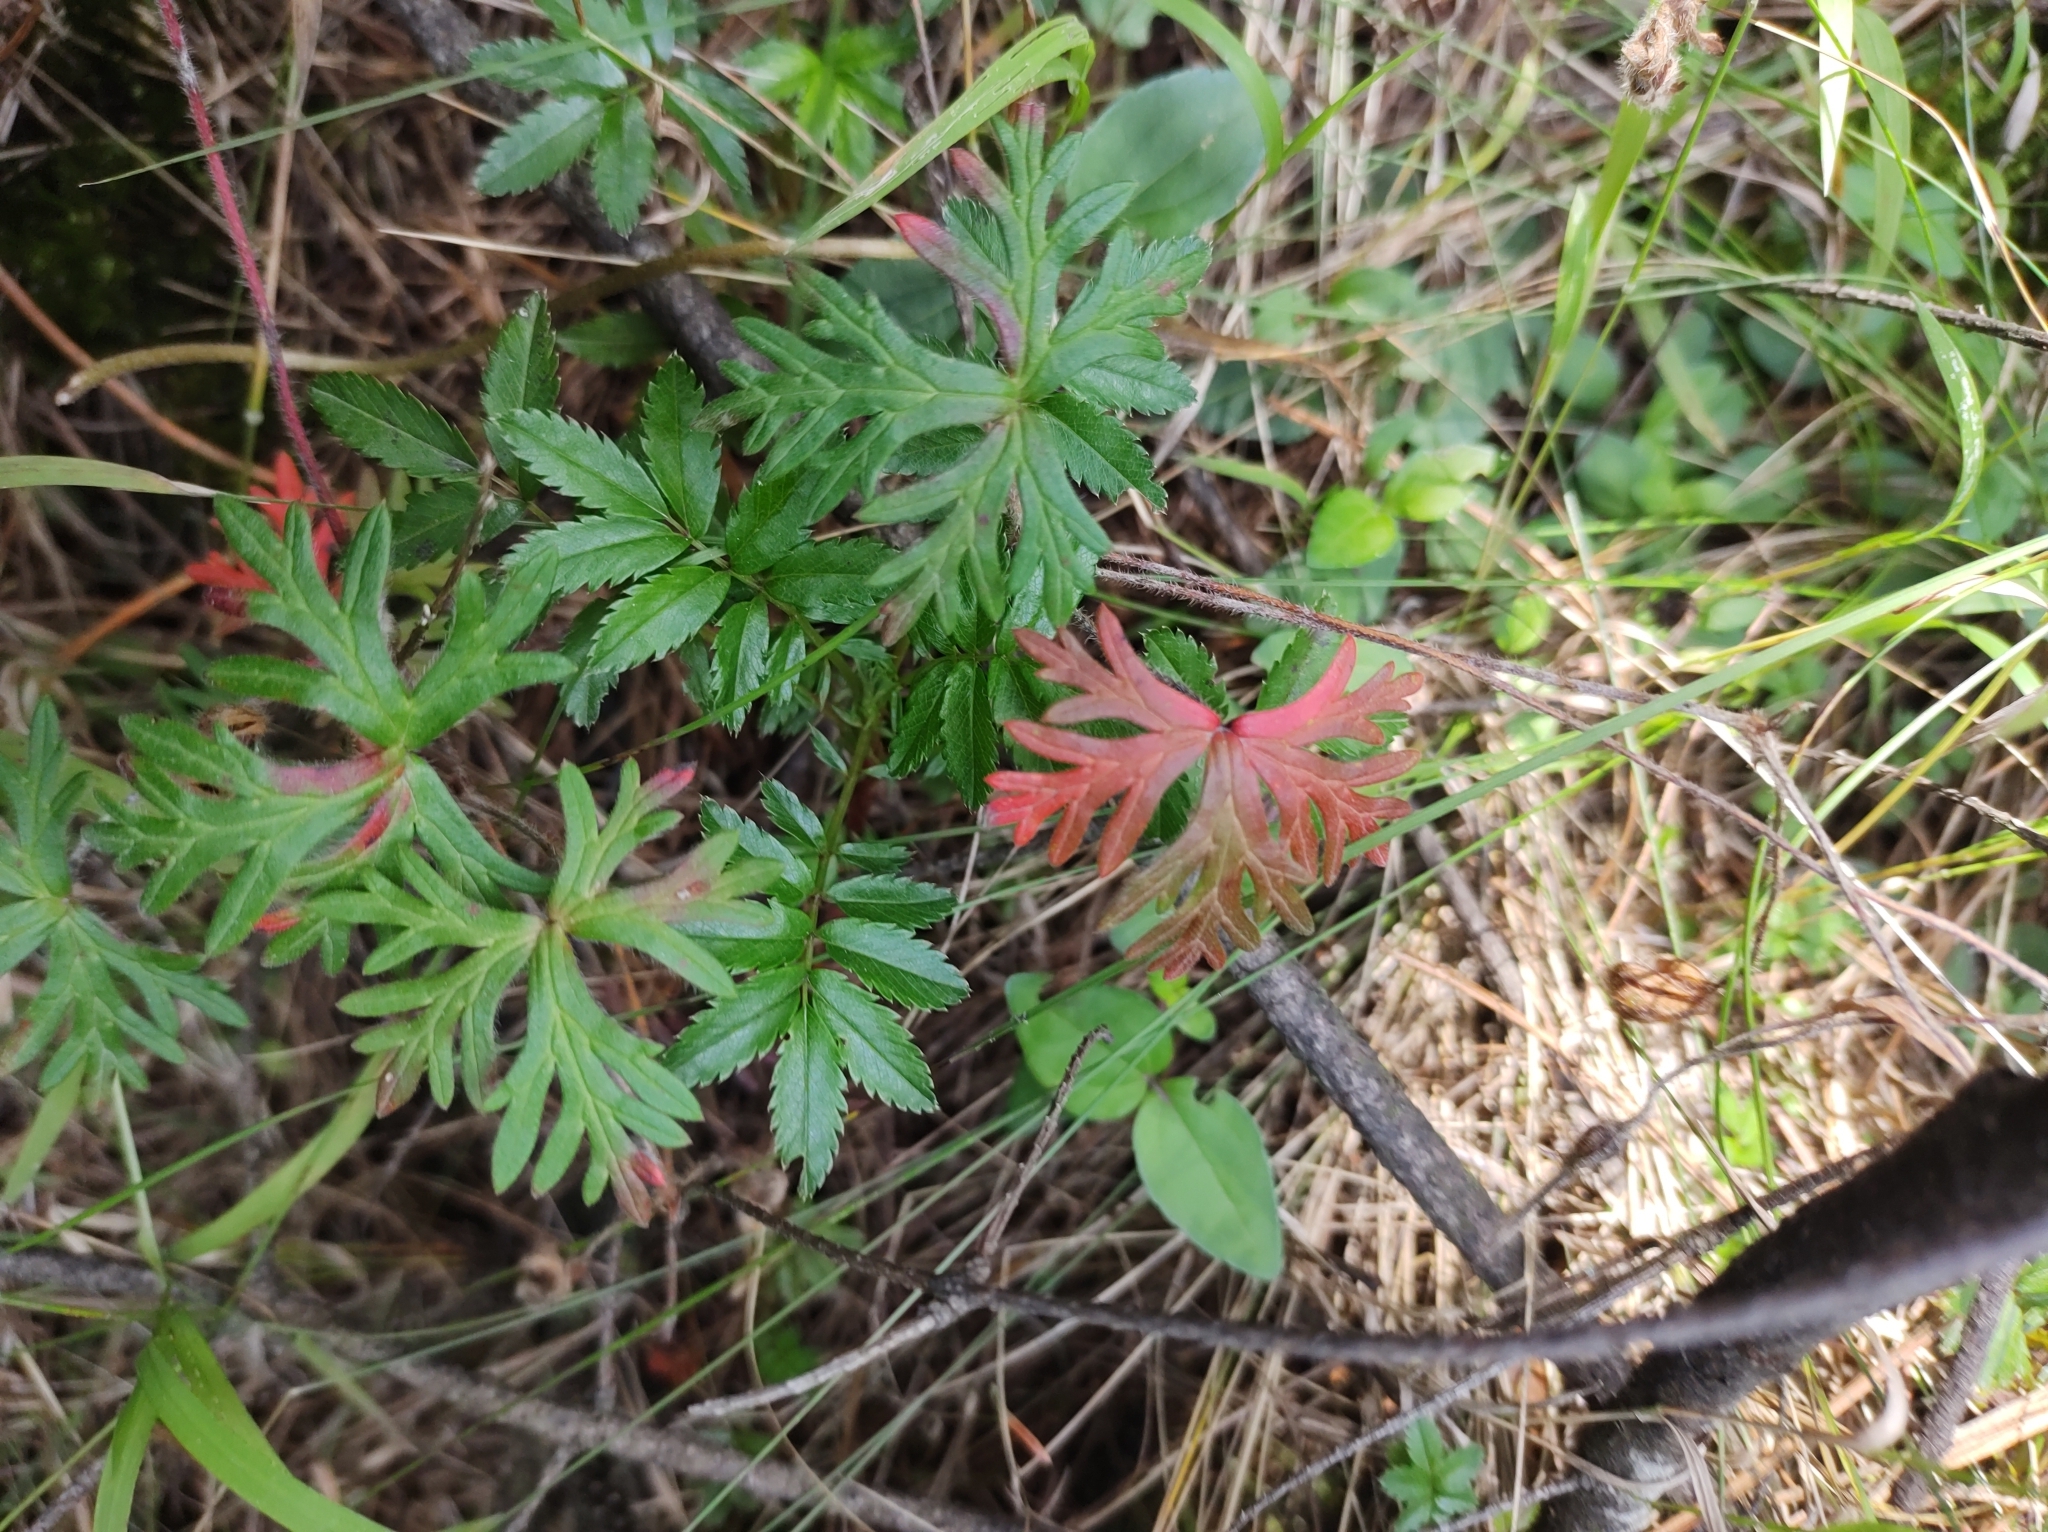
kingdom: Plantae
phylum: Tracheophyta
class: Magnoliopsida
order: Rosales
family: Rosaceae
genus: Acaena
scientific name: Acaena elongata
